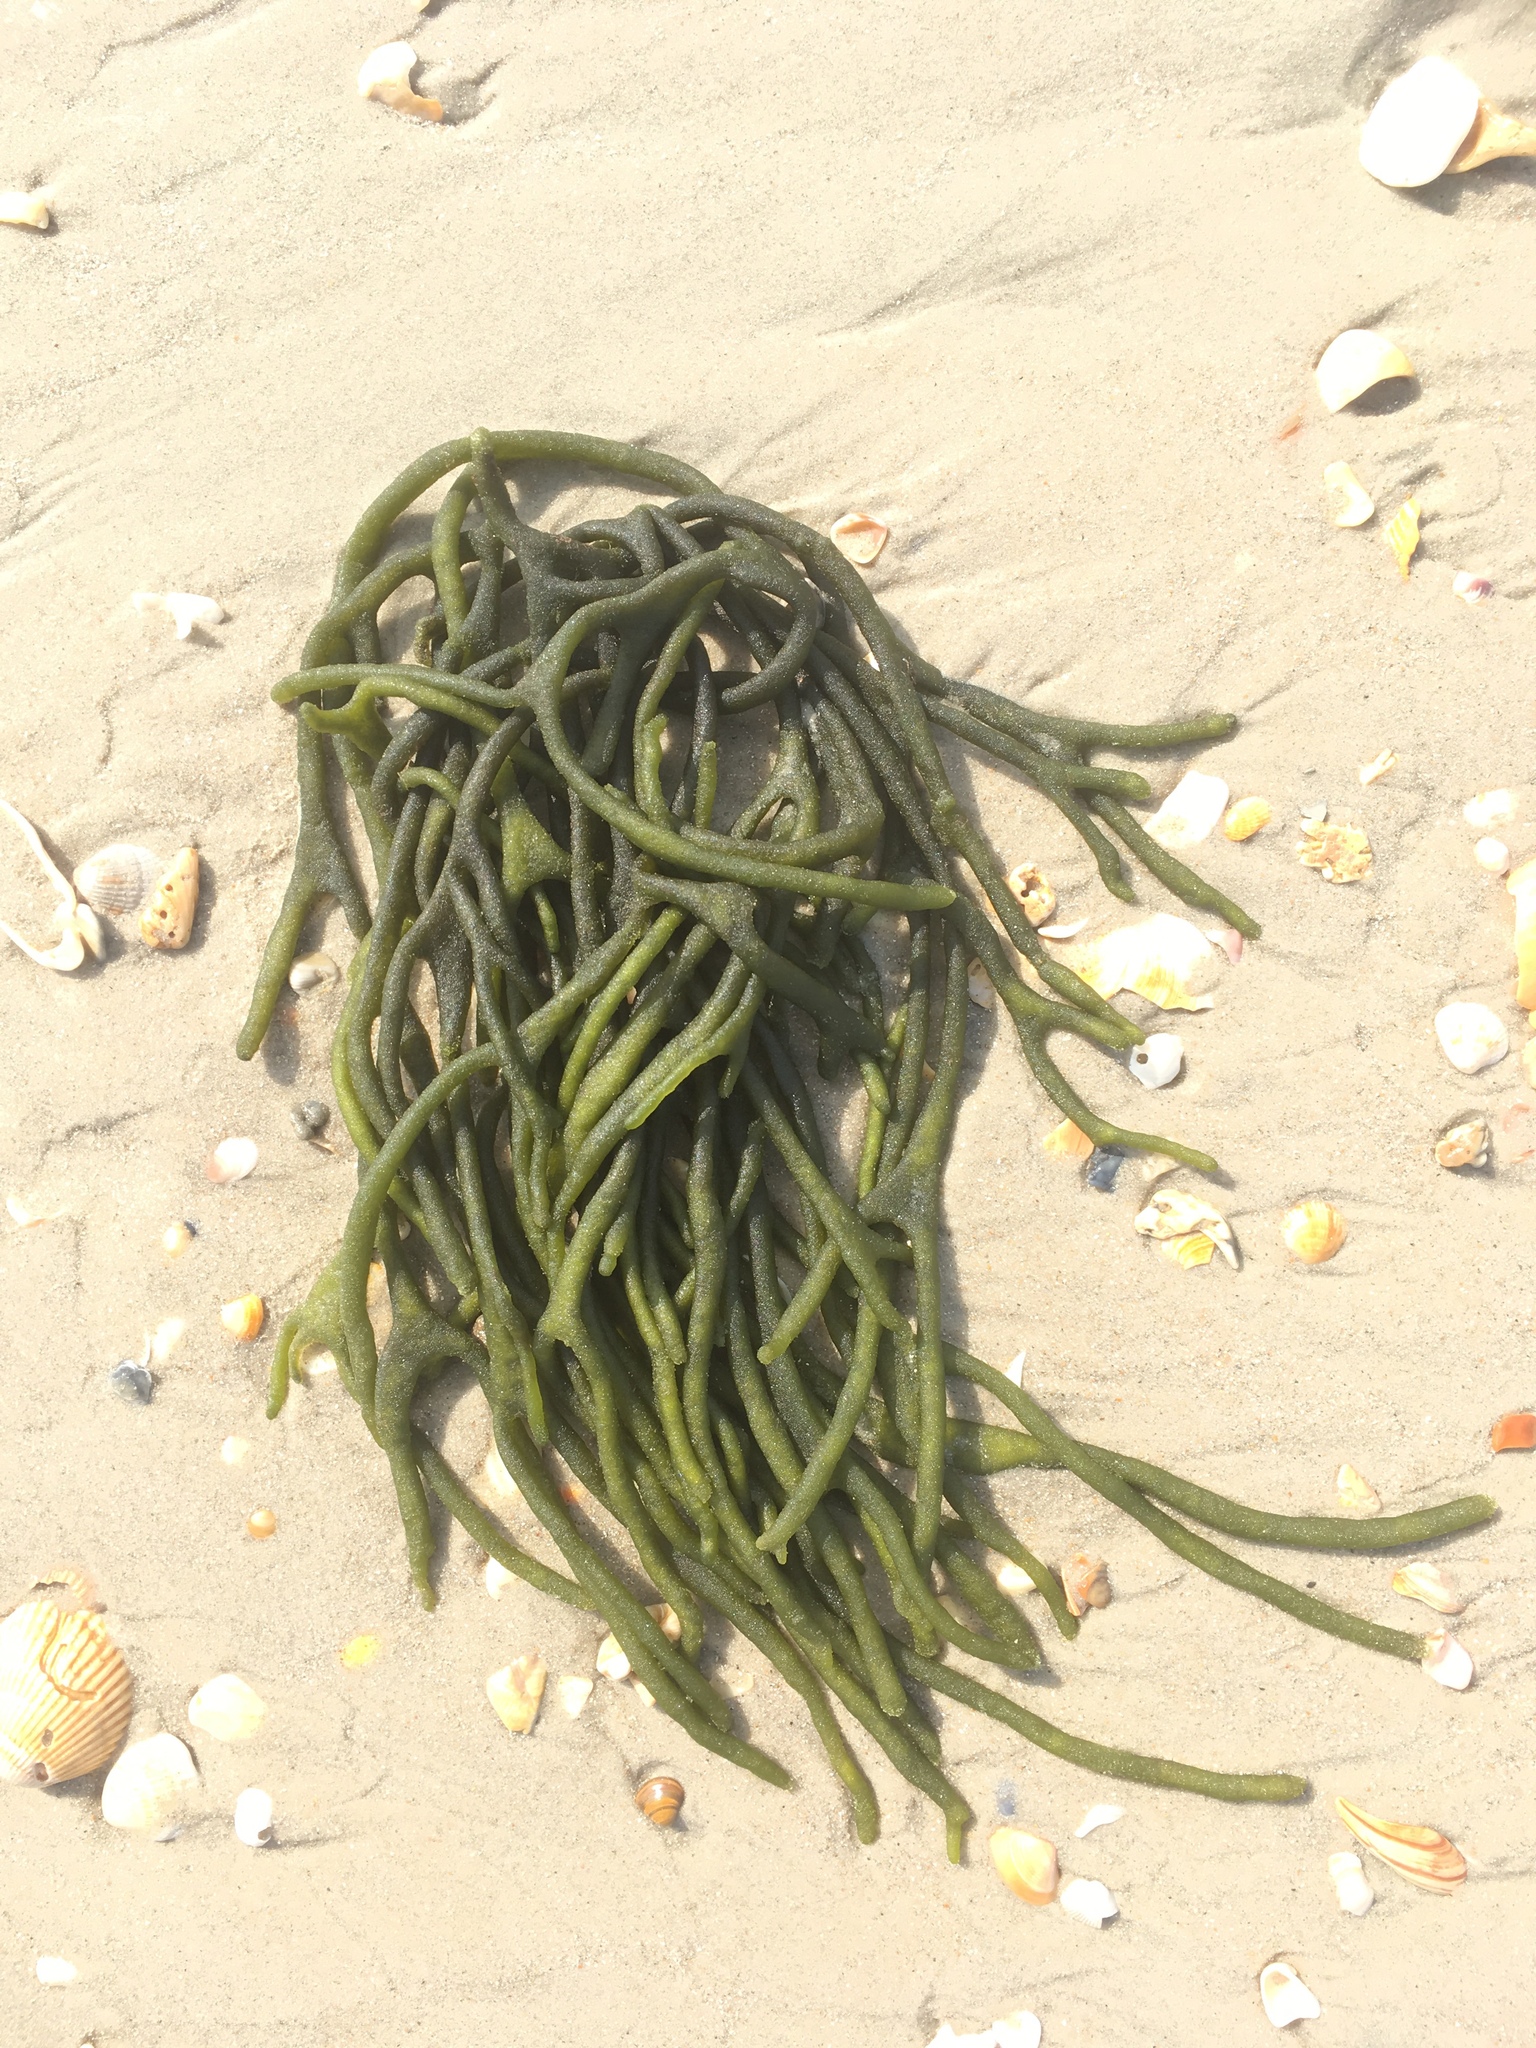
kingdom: Plantae
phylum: Chlorophyta
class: Ulvophyceae
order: Bryopsidales
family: Codiaceae
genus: Codium
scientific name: Codium fragile
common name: Dead man's fingers
